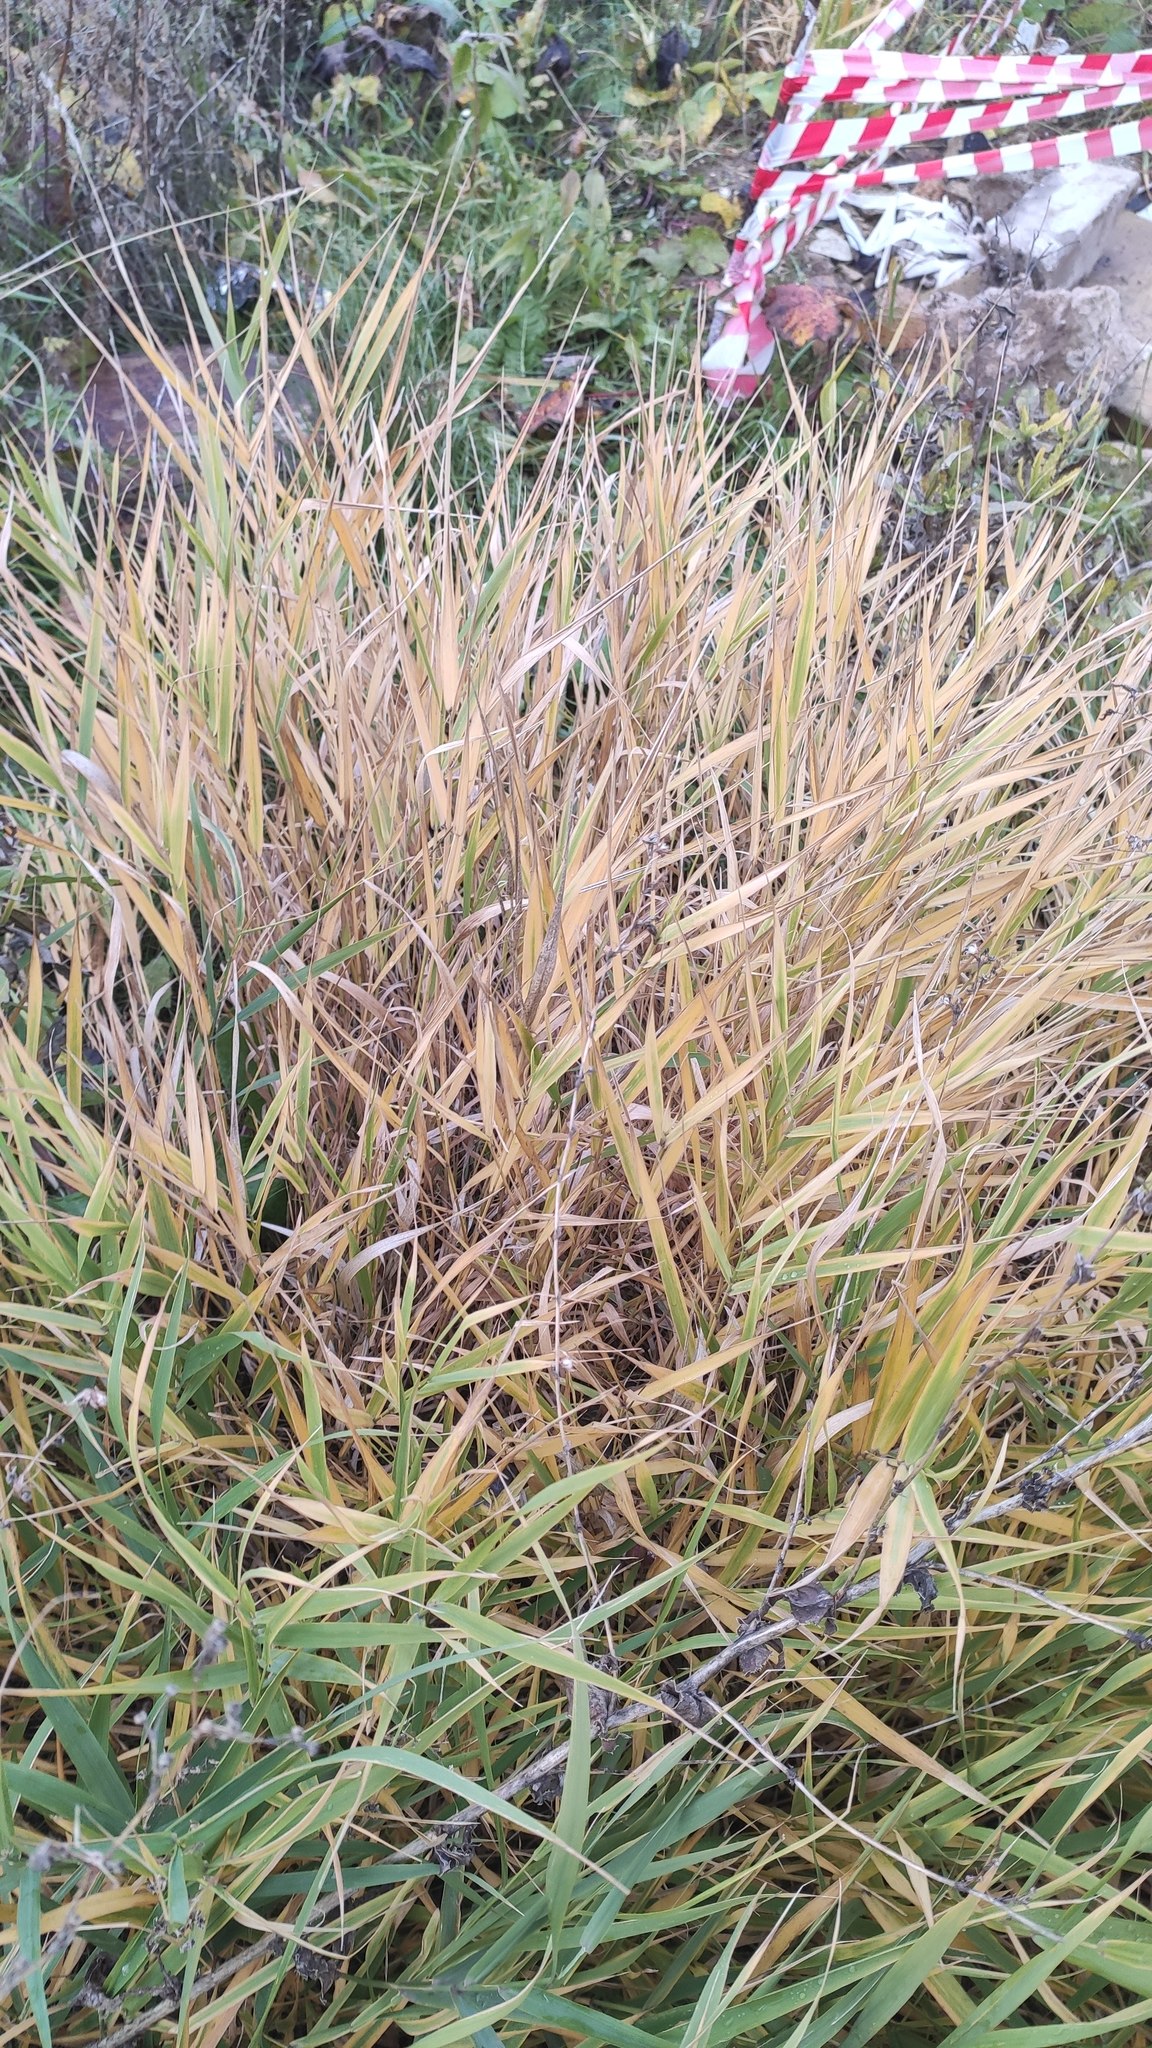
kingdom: Plantae
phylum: Tracheophyta
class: Liliopsida
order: Poales
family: Poaceae
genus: Phalaris
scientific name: Phalaris arundinacea
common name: Reed canary-grass
